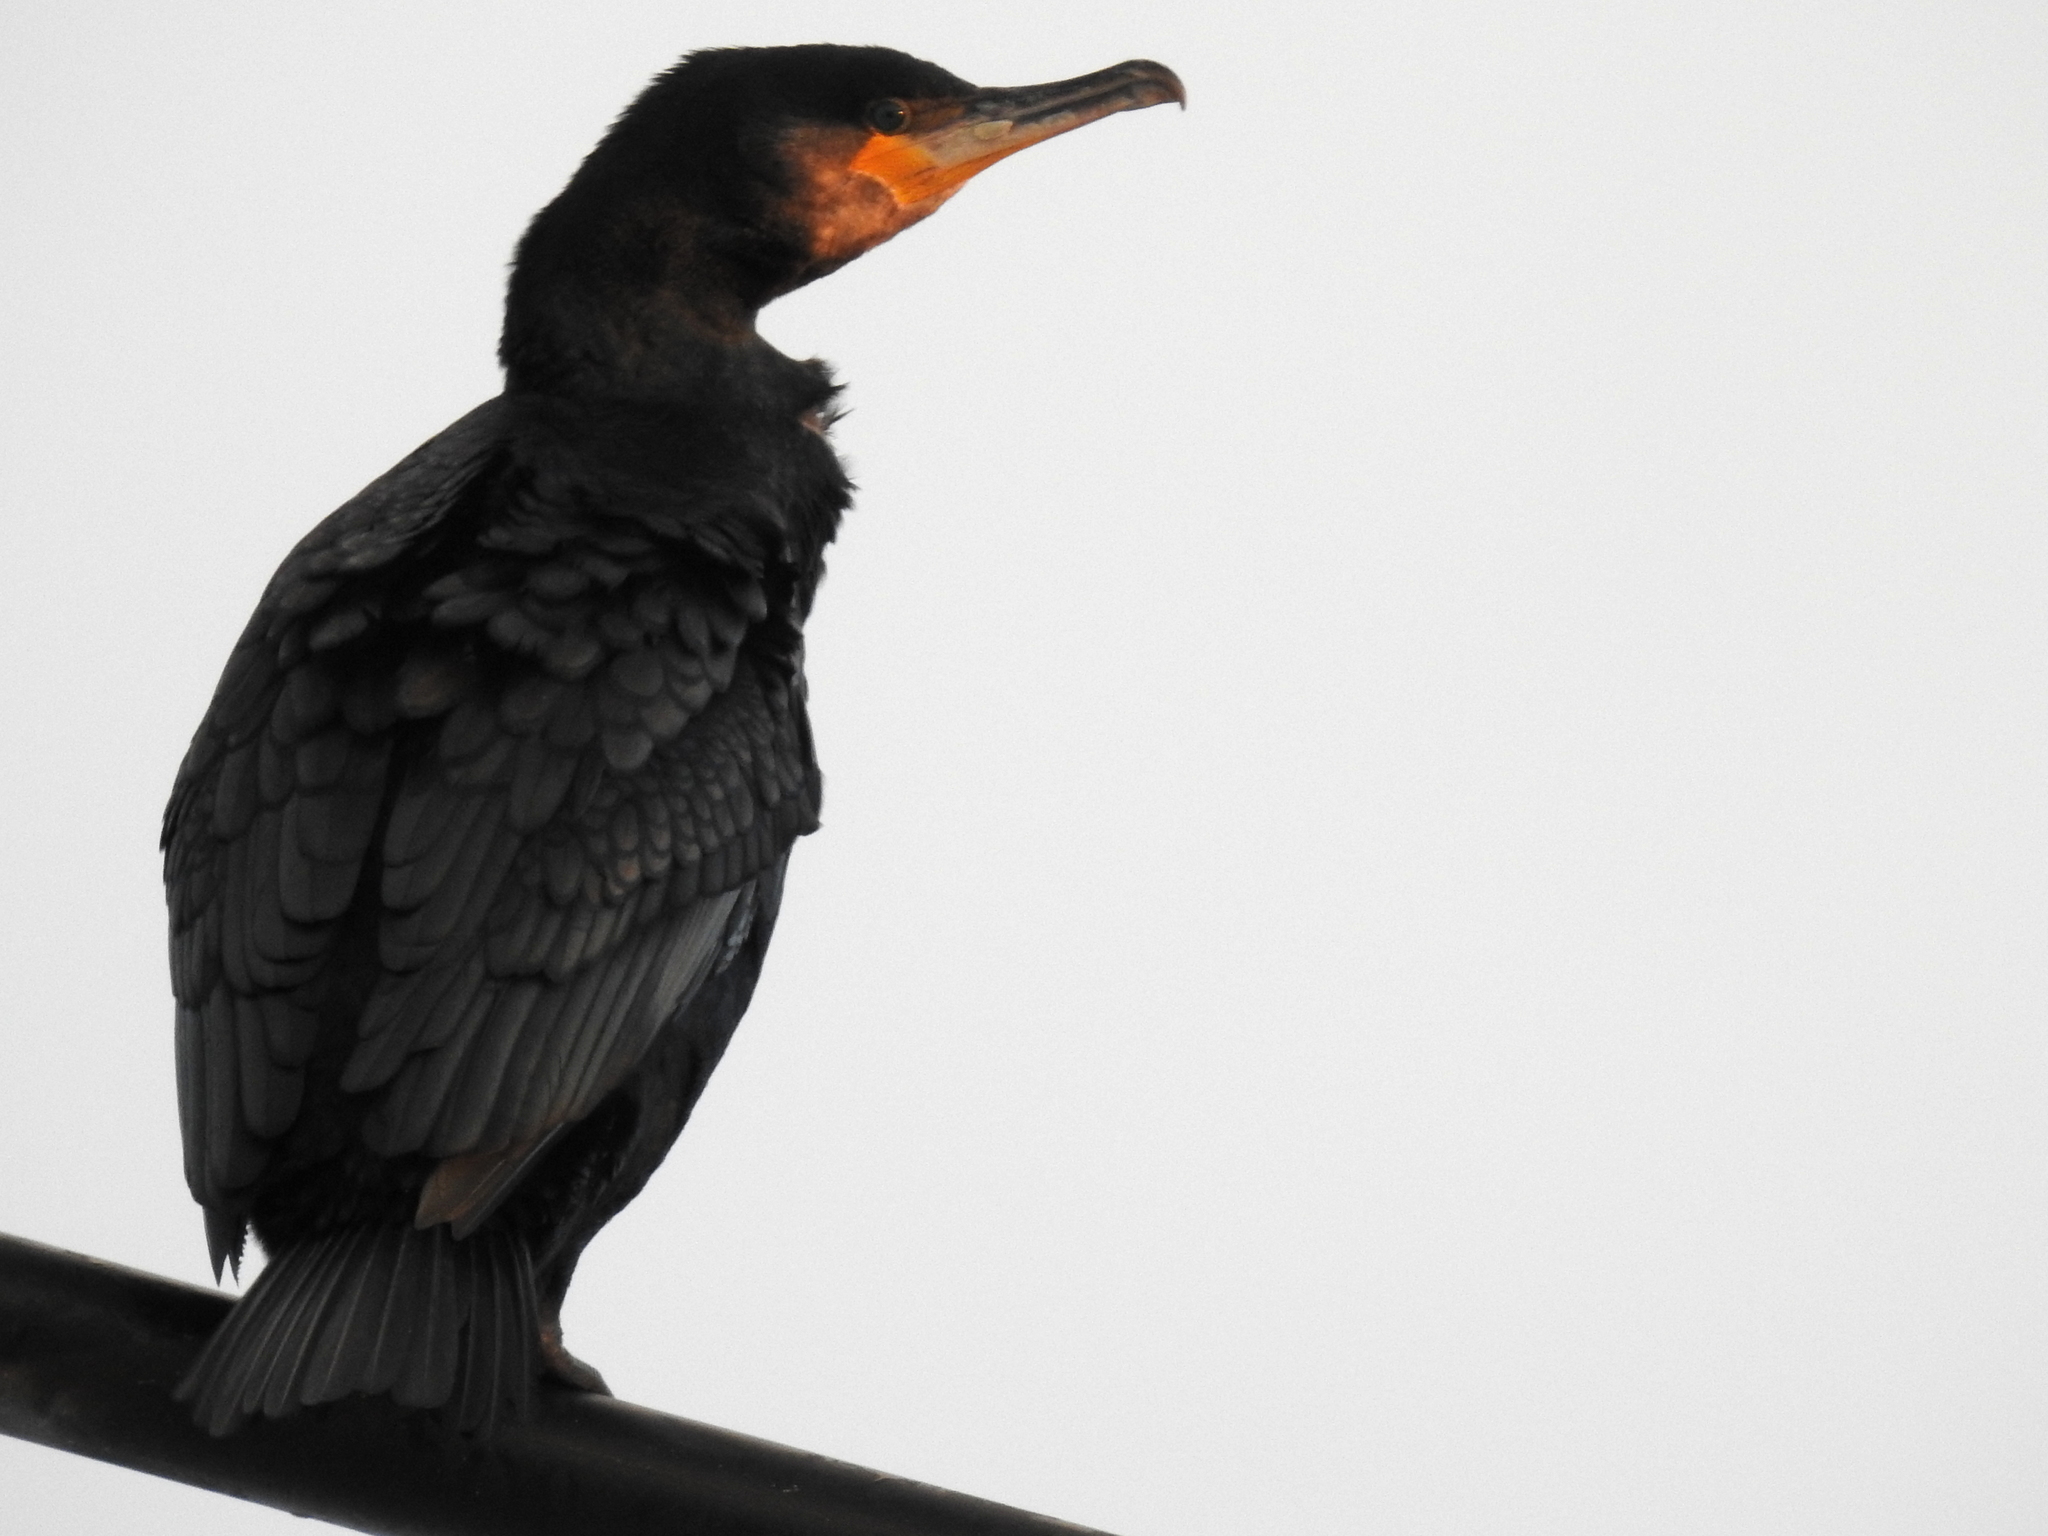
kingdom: Animalia
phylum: Chordata
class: Aves
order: Suliformes
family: Phalacrocoracidae
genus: Phalacrocorax
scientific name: Phalacrocorax carbo
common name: Great cormorant
